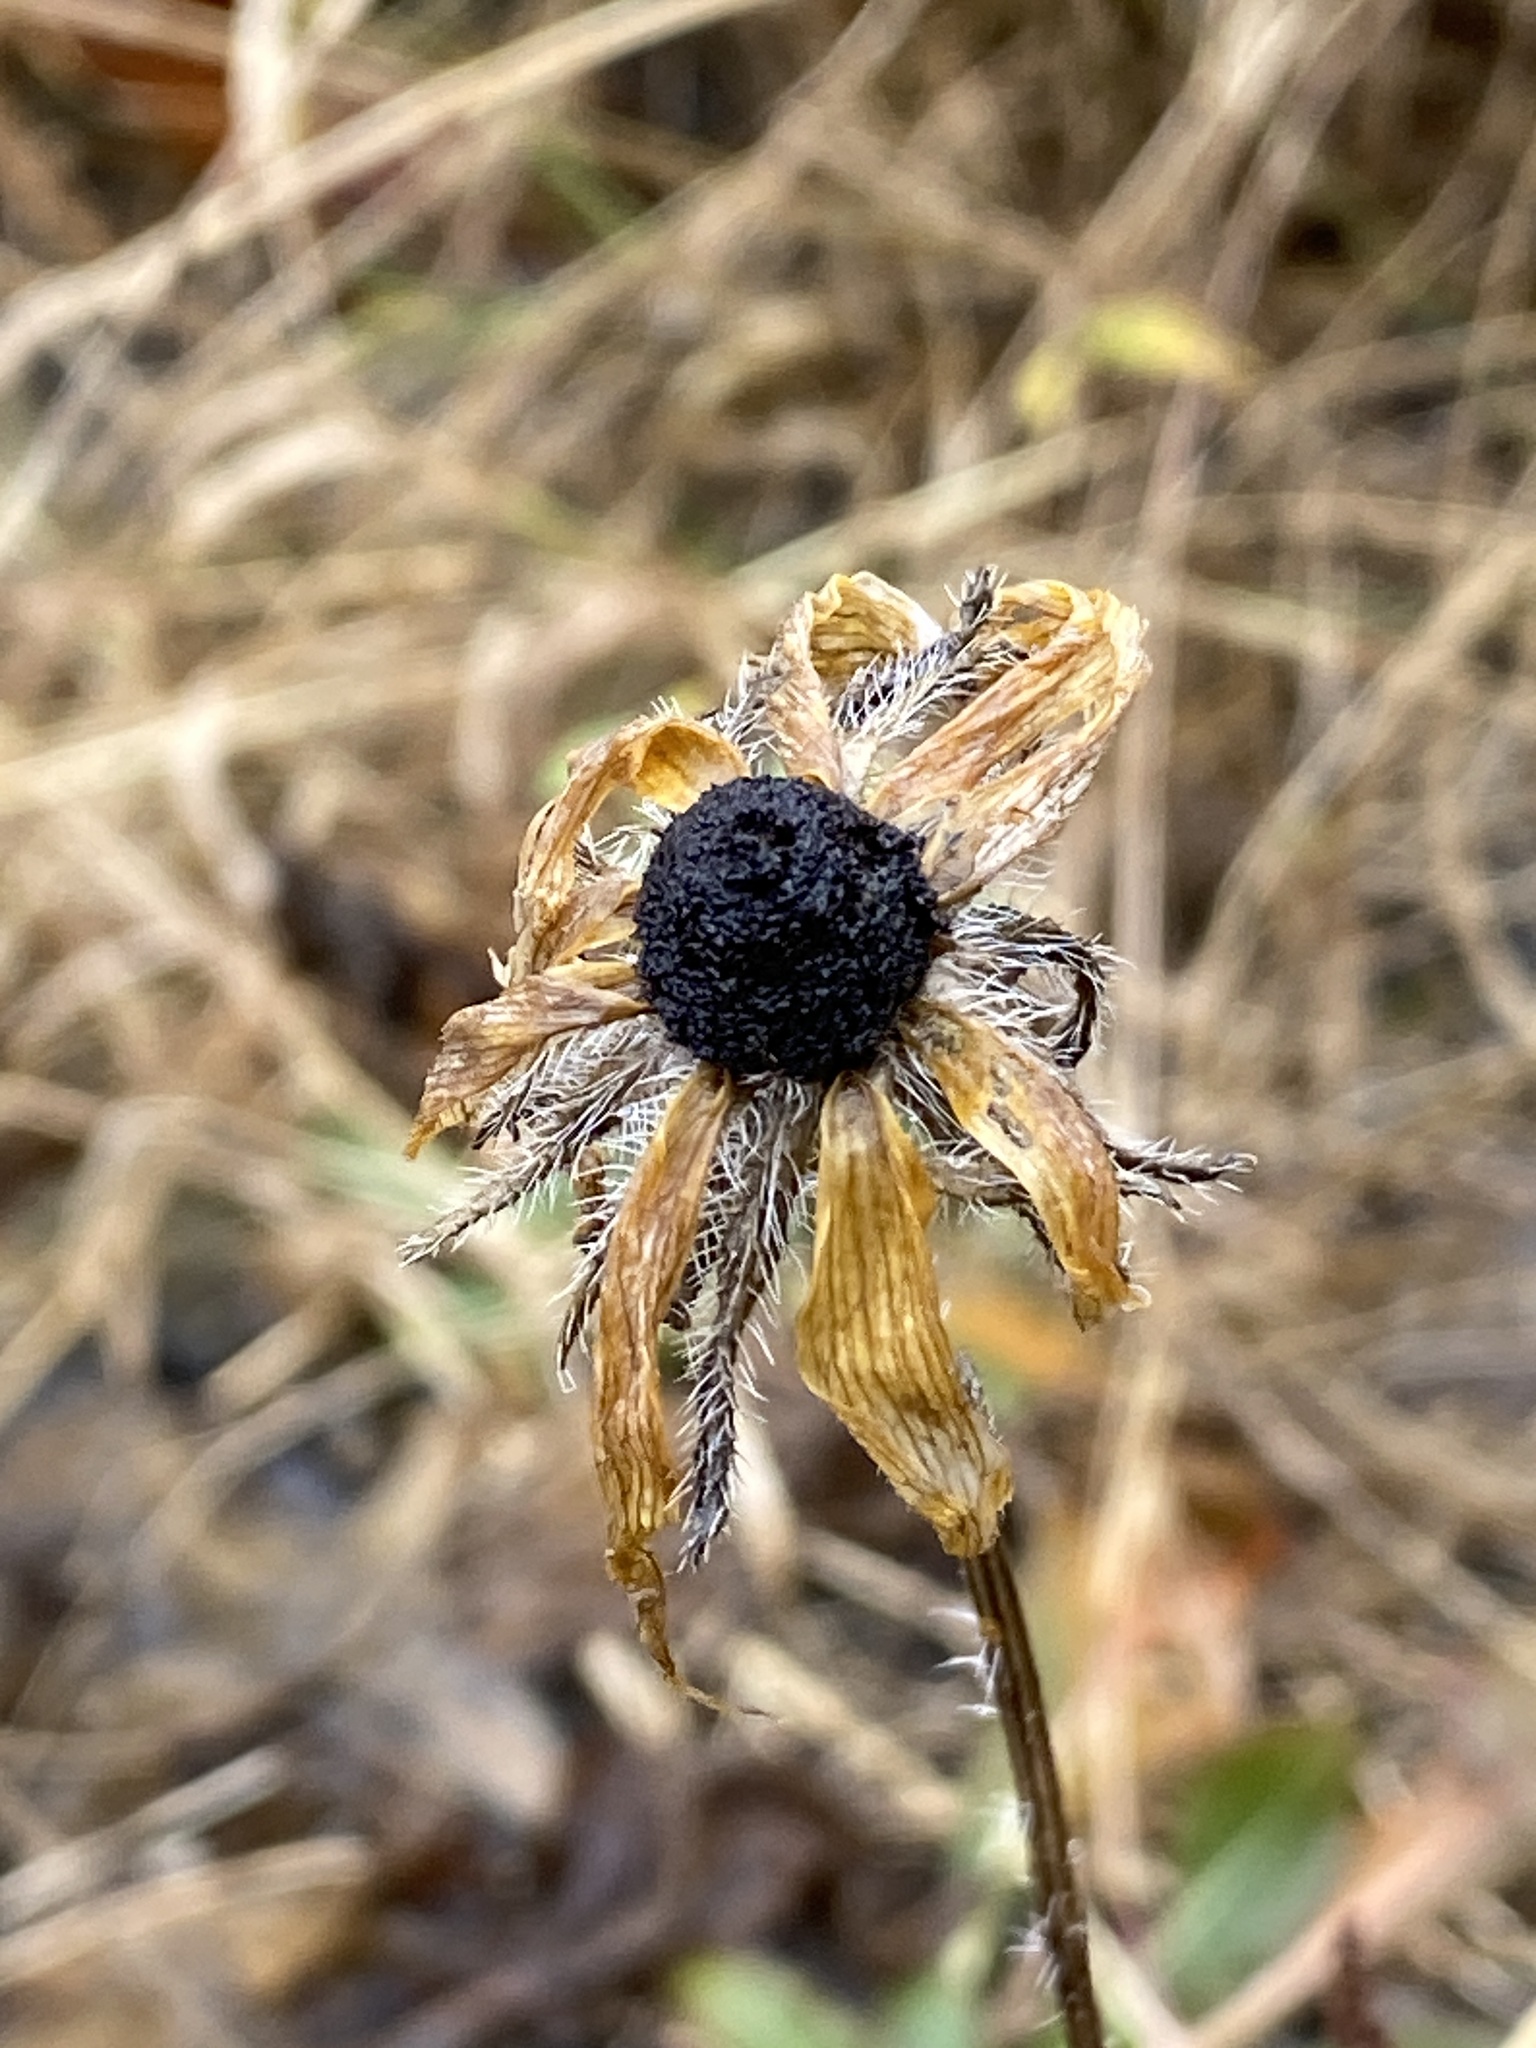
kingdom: Plantae
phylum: Tracheophyta
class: Magnoliopsida
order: Asterales
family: Asteraceae
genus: Rudbeckia
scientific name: Rudbeckia hirta
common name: Black-eyed-susan
